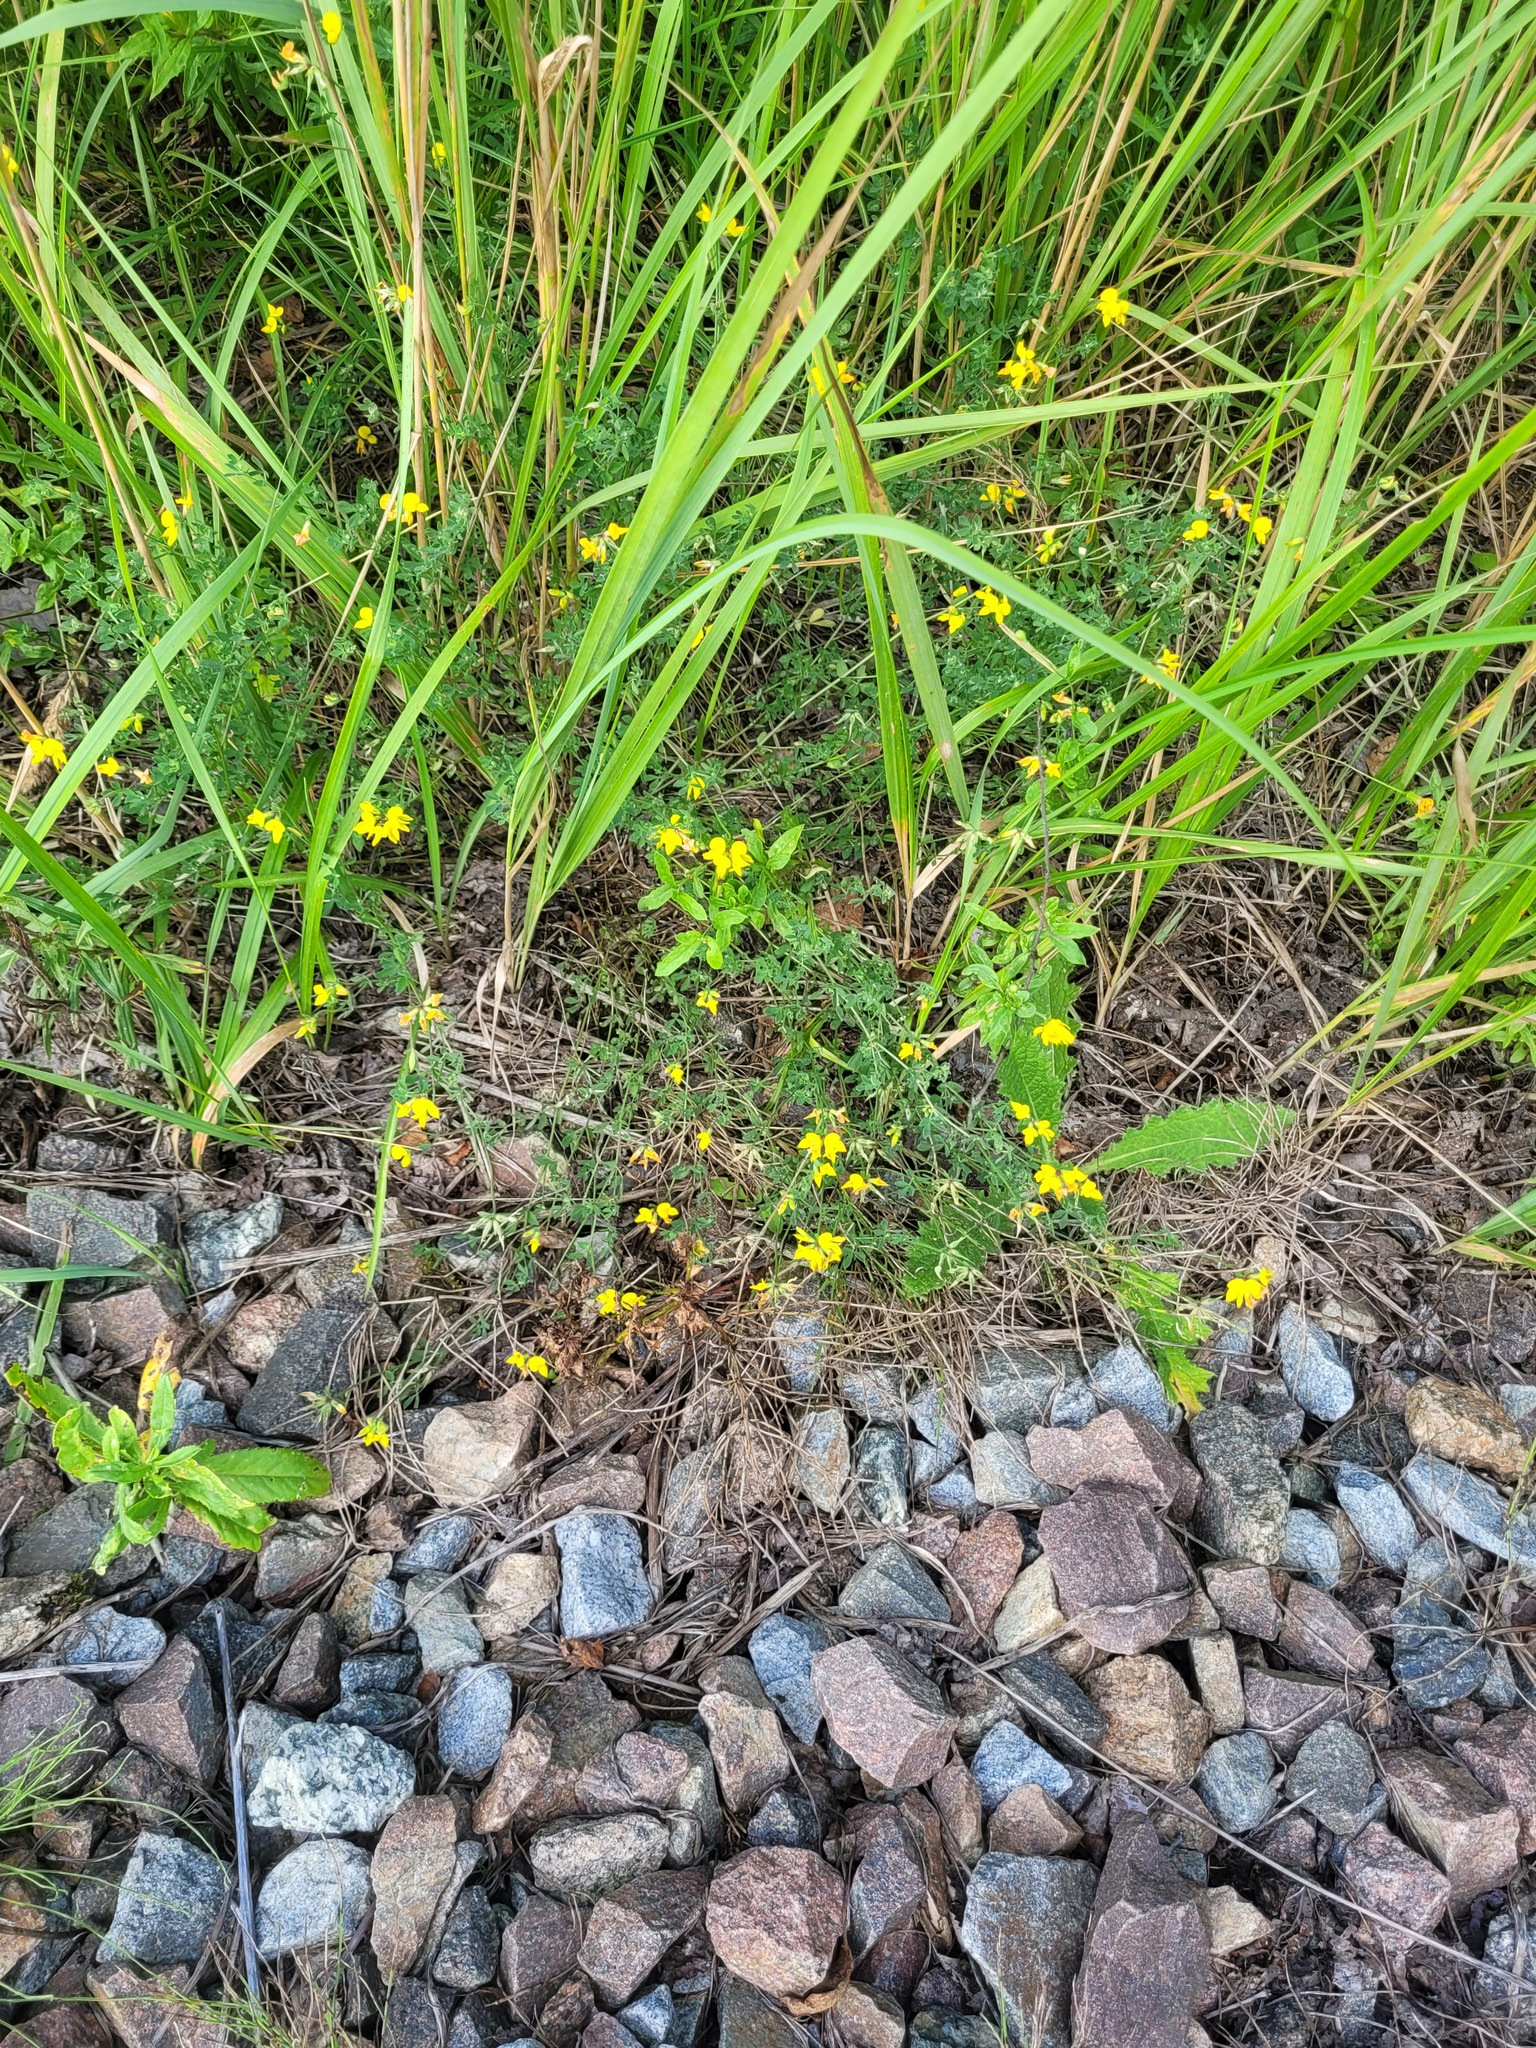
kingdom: Plantae
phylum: Tracheophyta
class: Magnoliopsida
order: Fabales
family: Fabaceae
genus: Lotus
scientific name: Lotus corniculatus
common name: Common bird's-foot-trefoil
